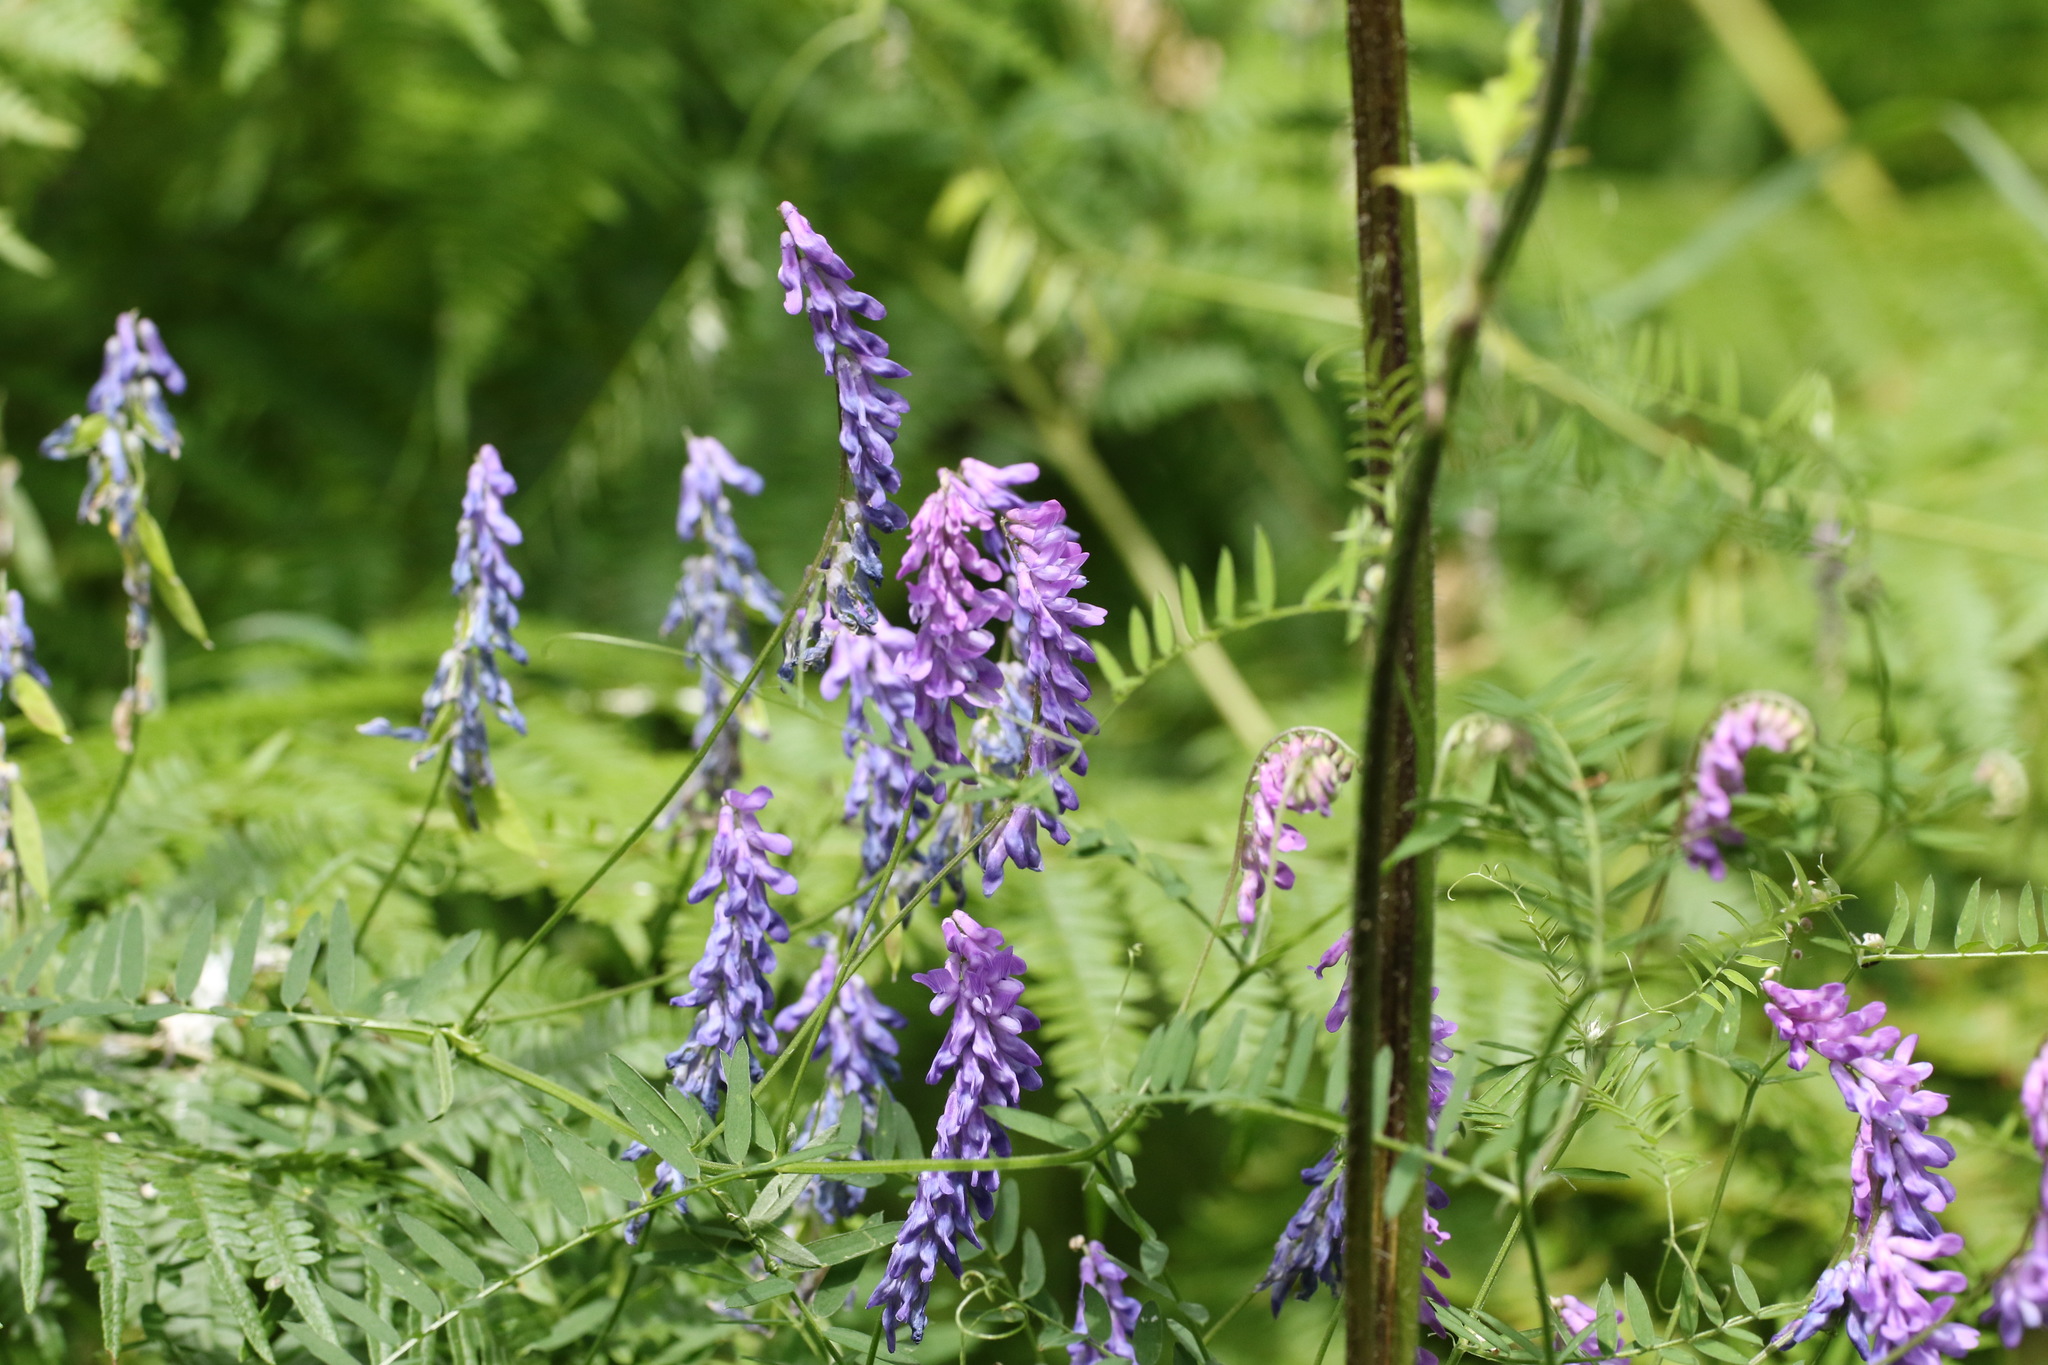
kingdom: Plantae
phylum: Tracheophyta
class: Magnoliopsida
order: Fabales
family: Fabaceae
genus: Vicia
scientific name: Vicia cracca
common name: Bird vetch
